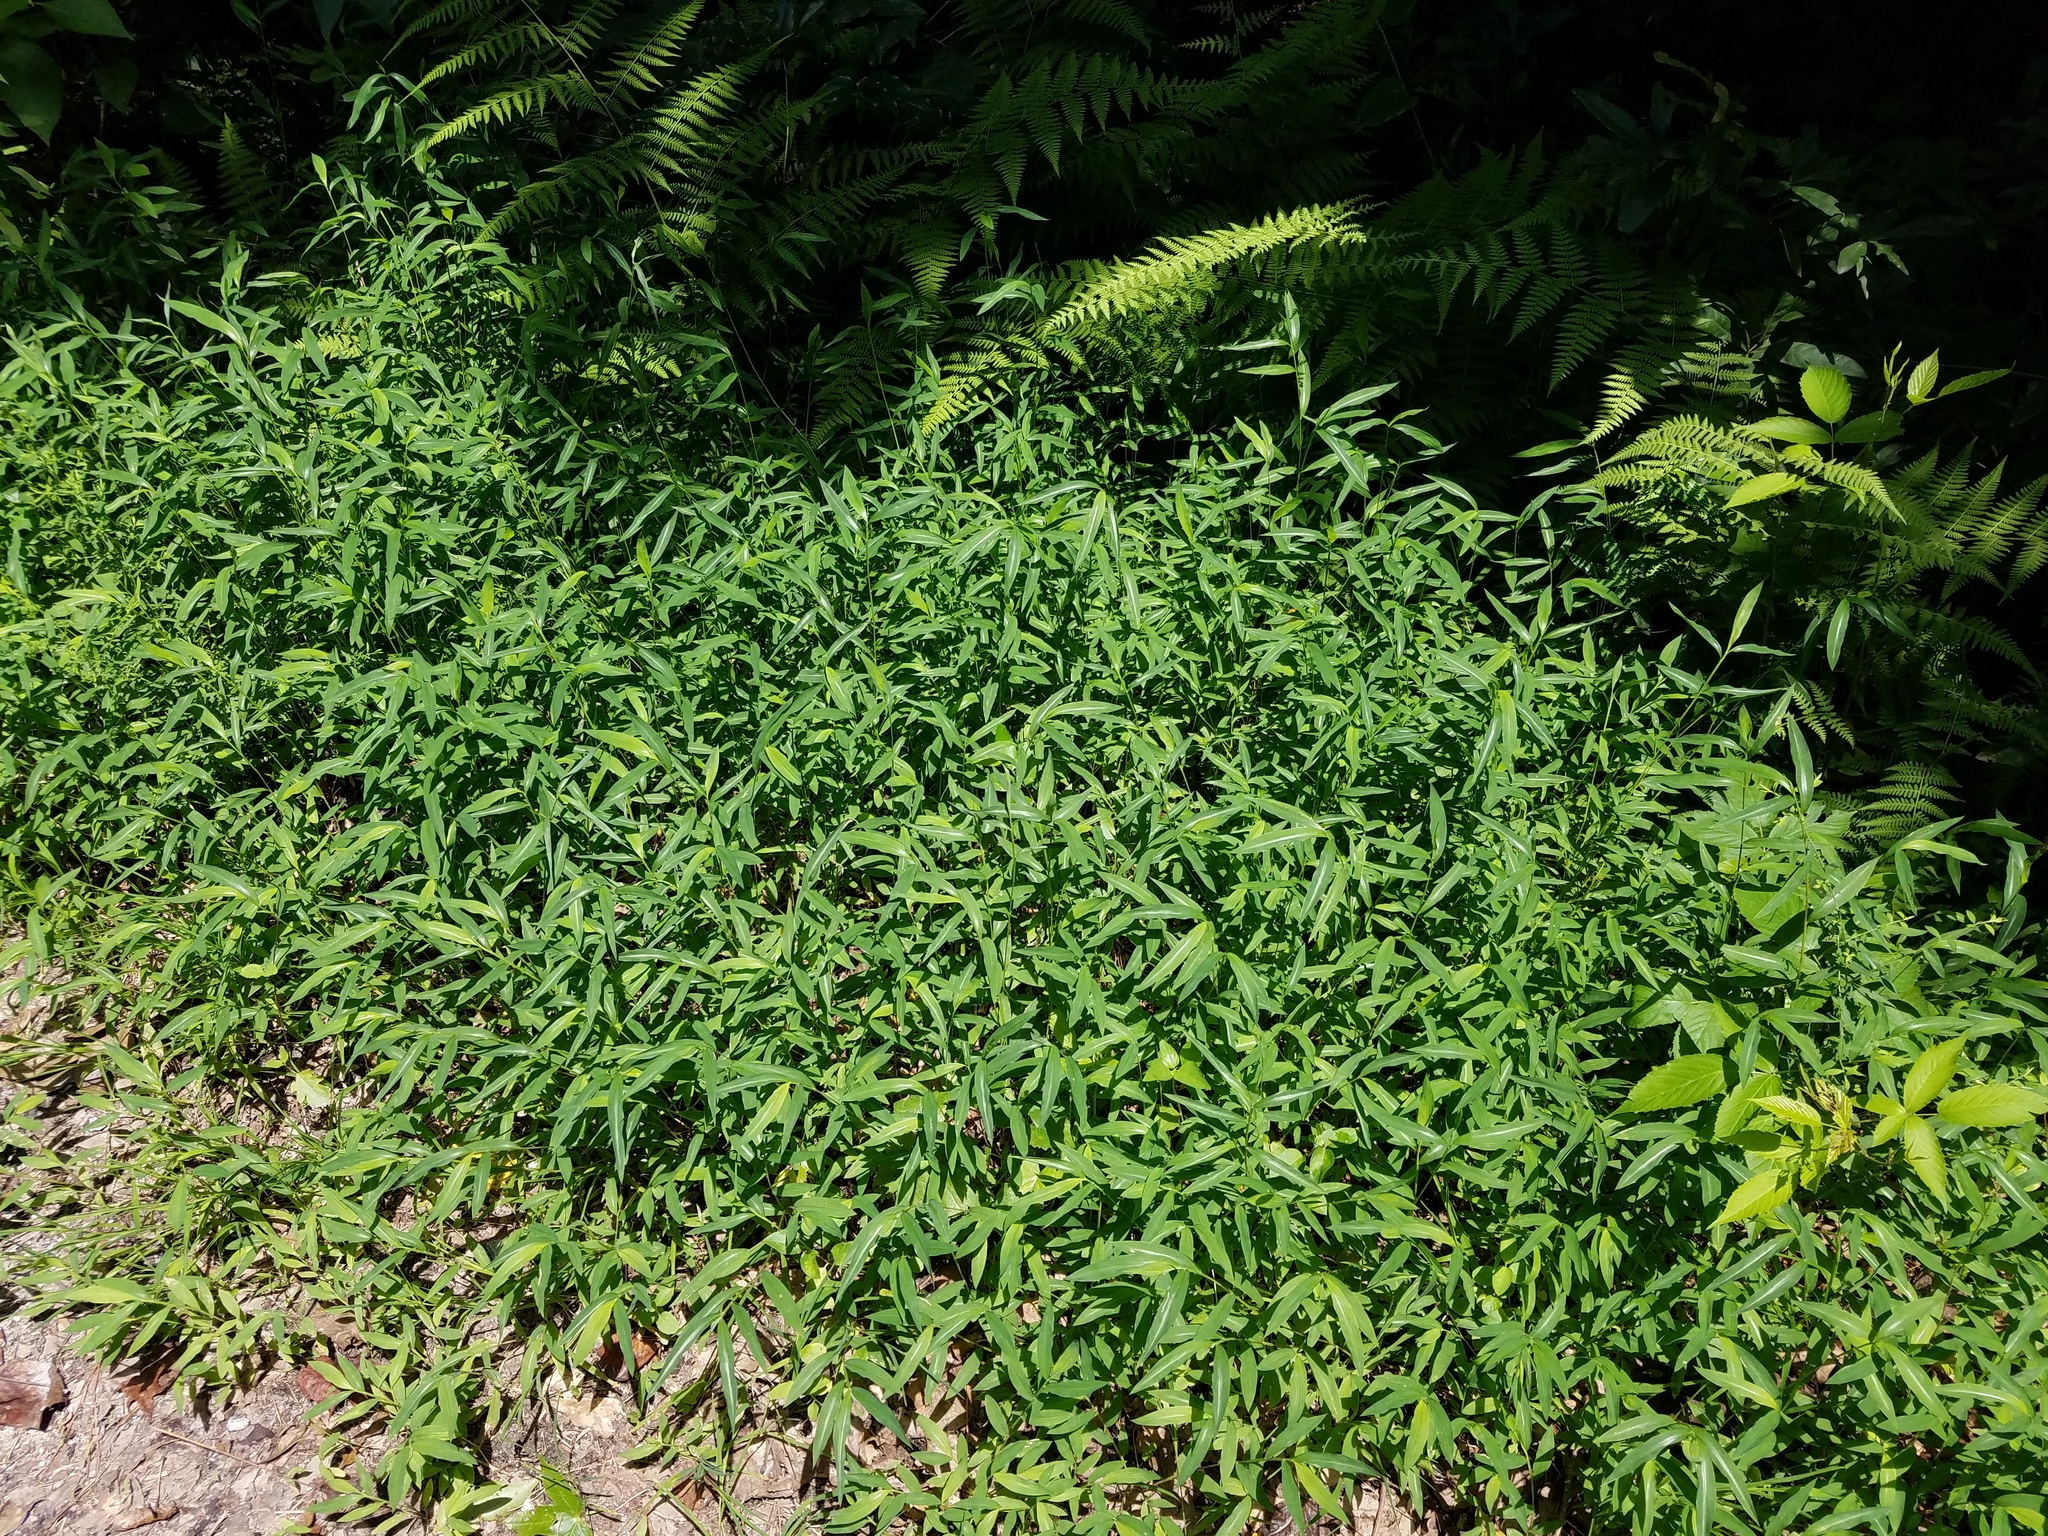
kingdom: Plantae
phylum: Tracheophyta
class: Liliopsida
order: Poales
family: Poaceae
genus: Microstegium
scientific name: Microstegium vimineum
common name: Japanese stiltgrass
